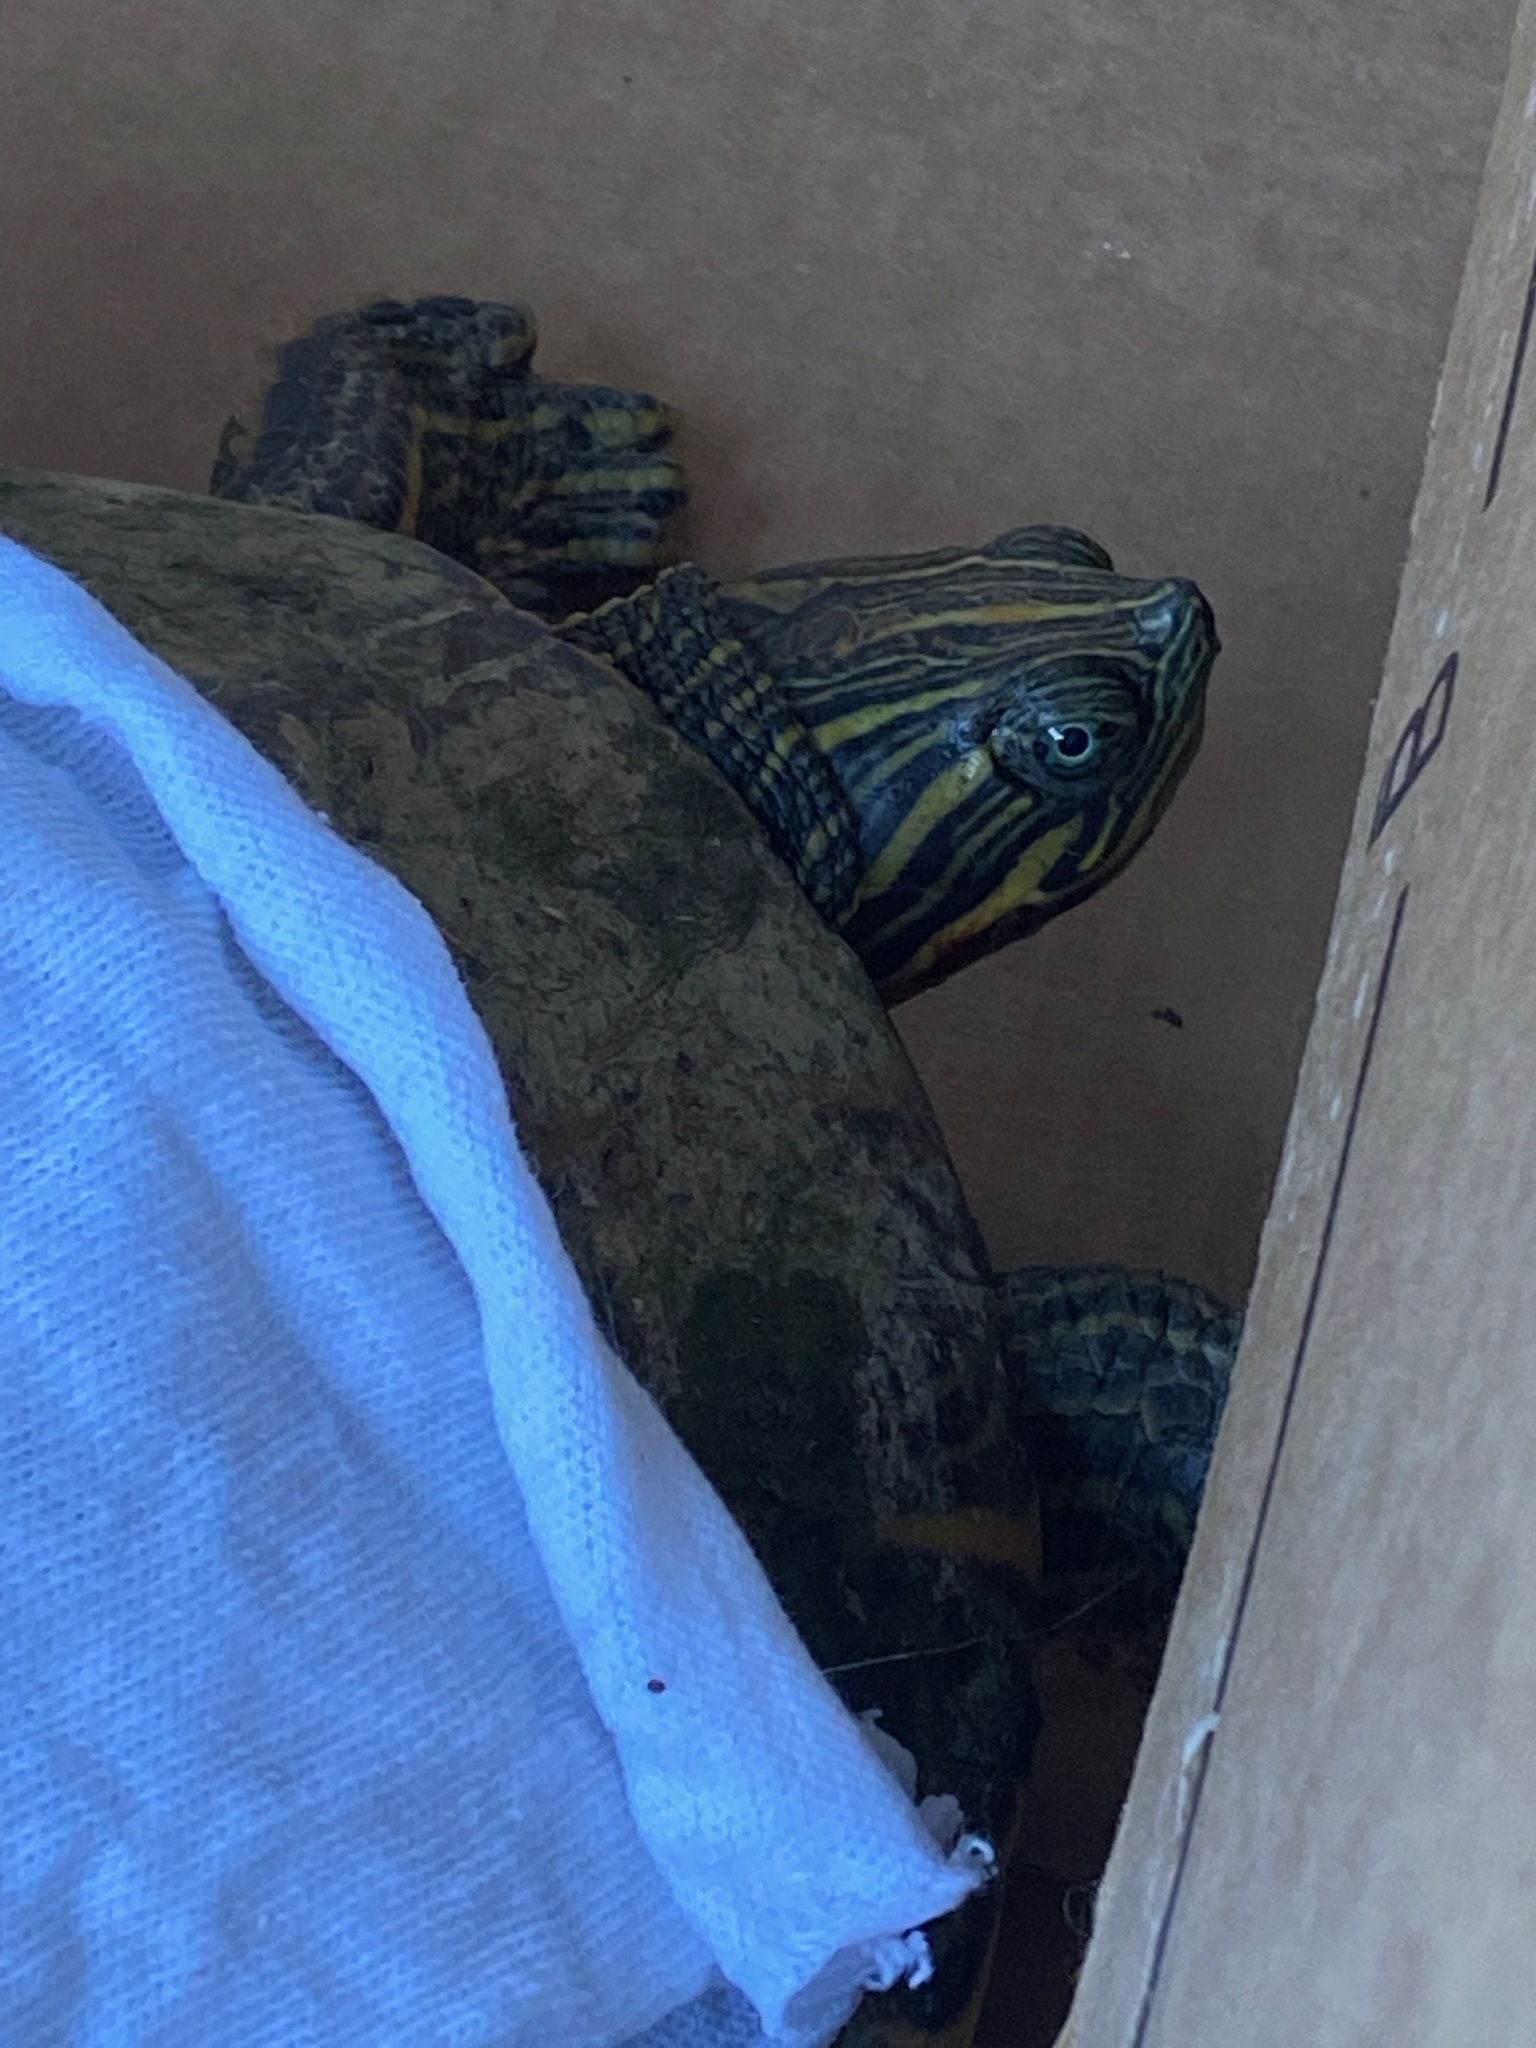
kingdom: Animalia
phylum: Chordata
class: Testudines
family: Emydidae
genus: Pseudemys
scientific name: Pseudemys concinna
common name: Eastern river cooter
